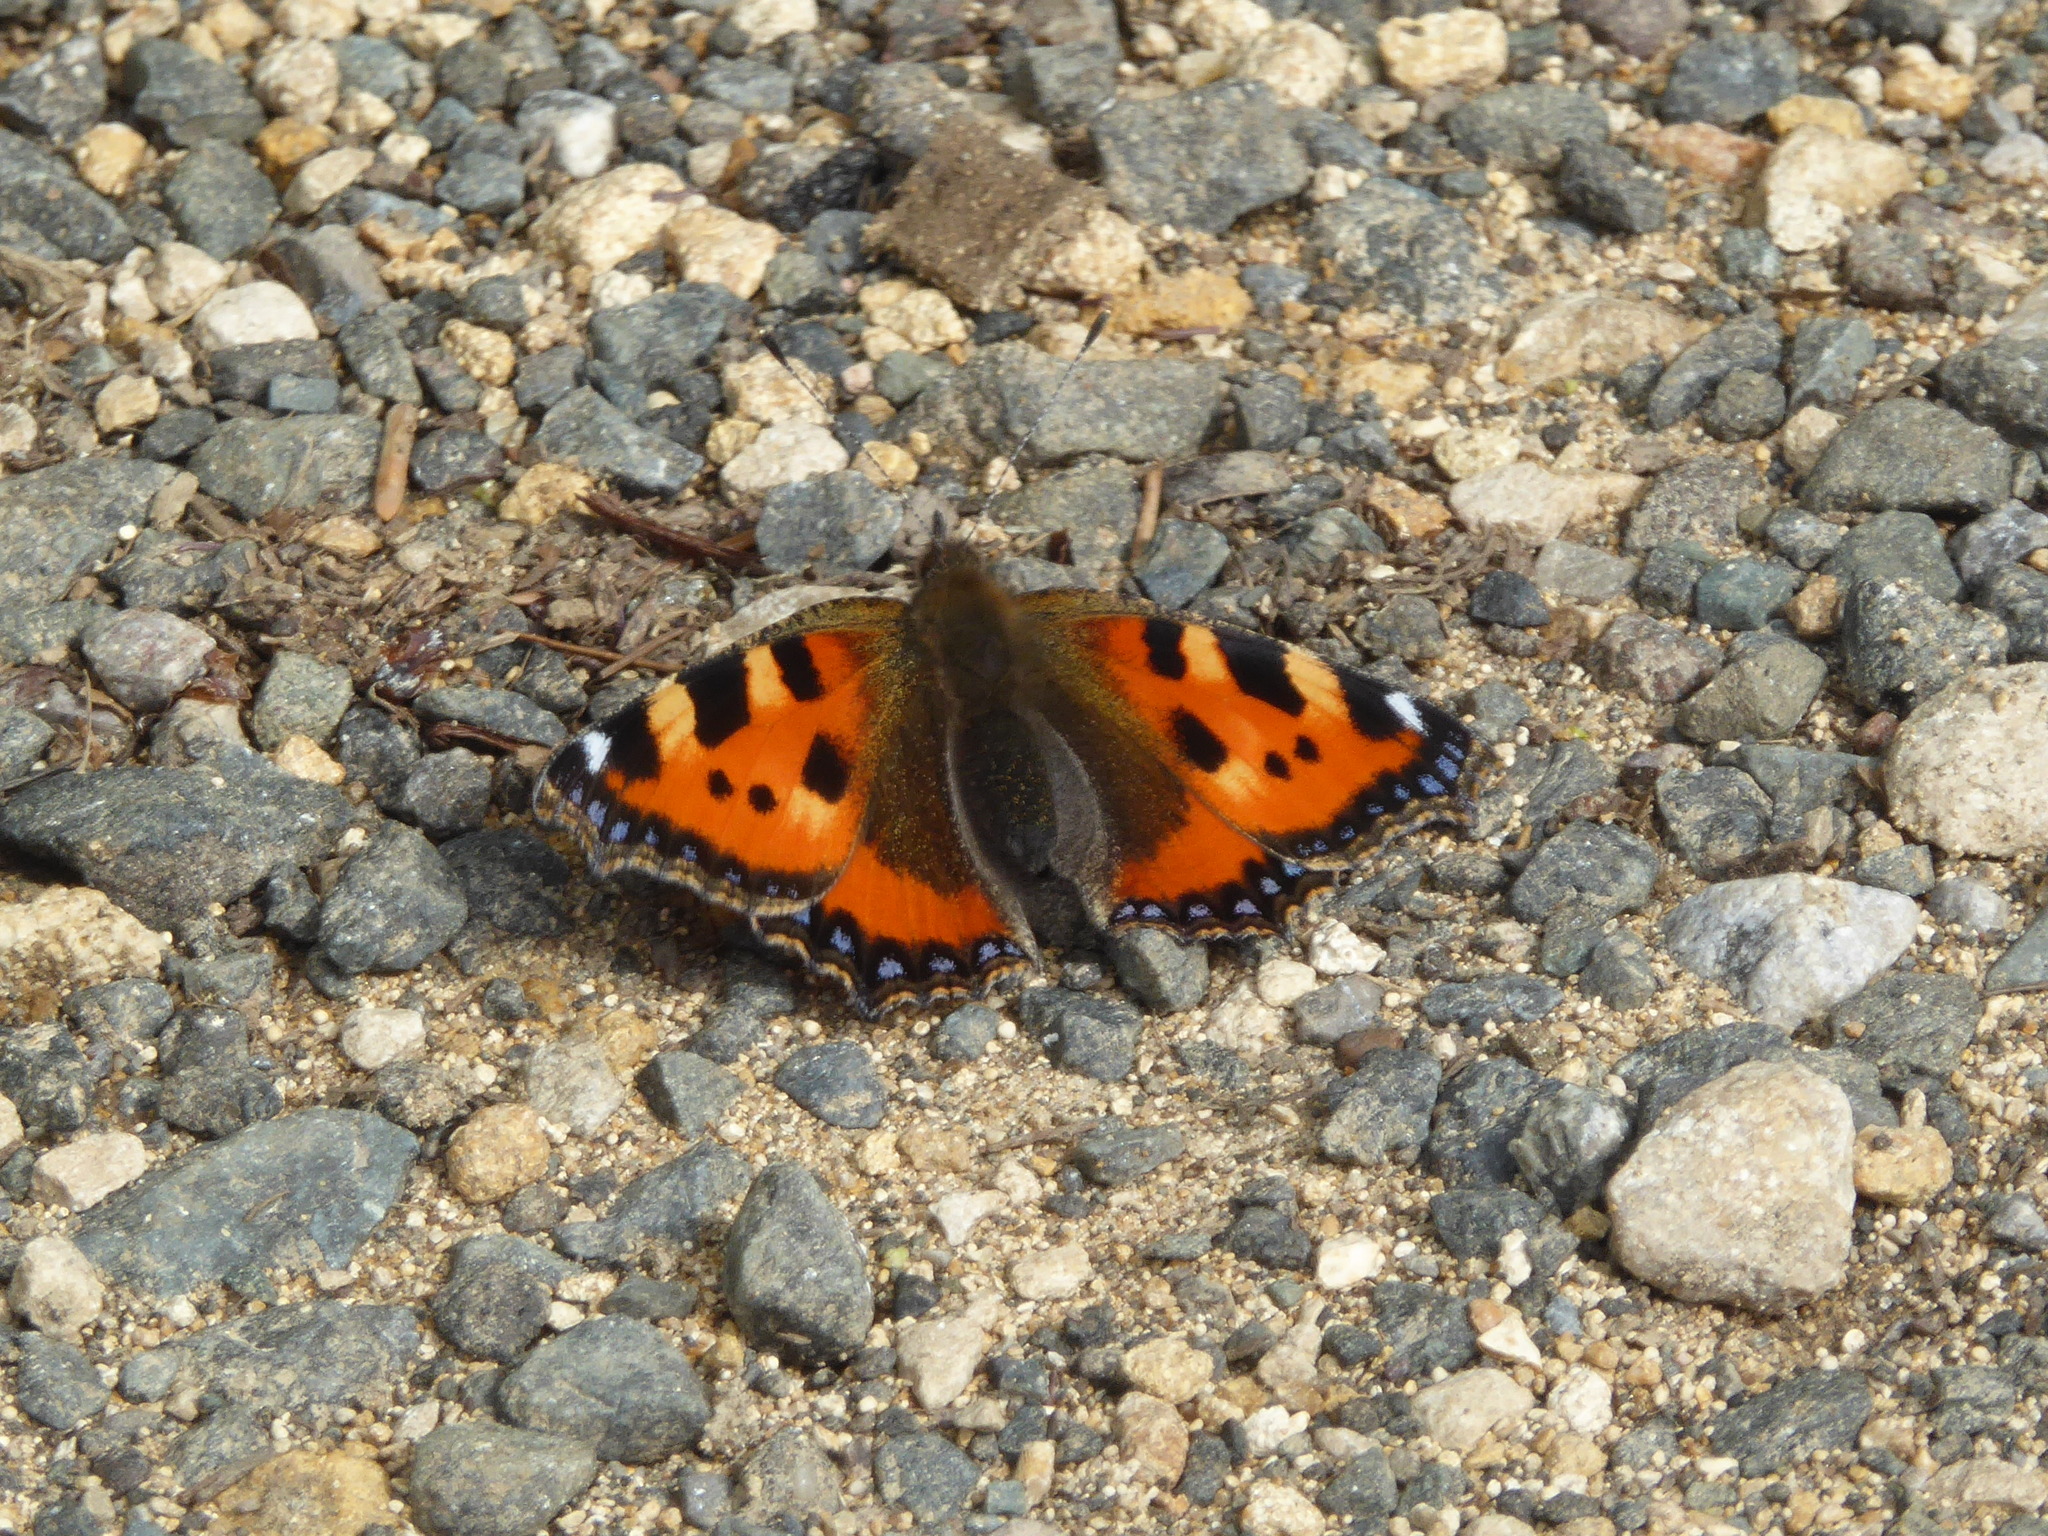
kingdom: Animalia
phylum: Arthropoda
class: Insecta
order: Lepidoptera
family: Nymphalidae
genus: Aglais
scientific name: Aglais urticae
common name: Small tortoiseshell
